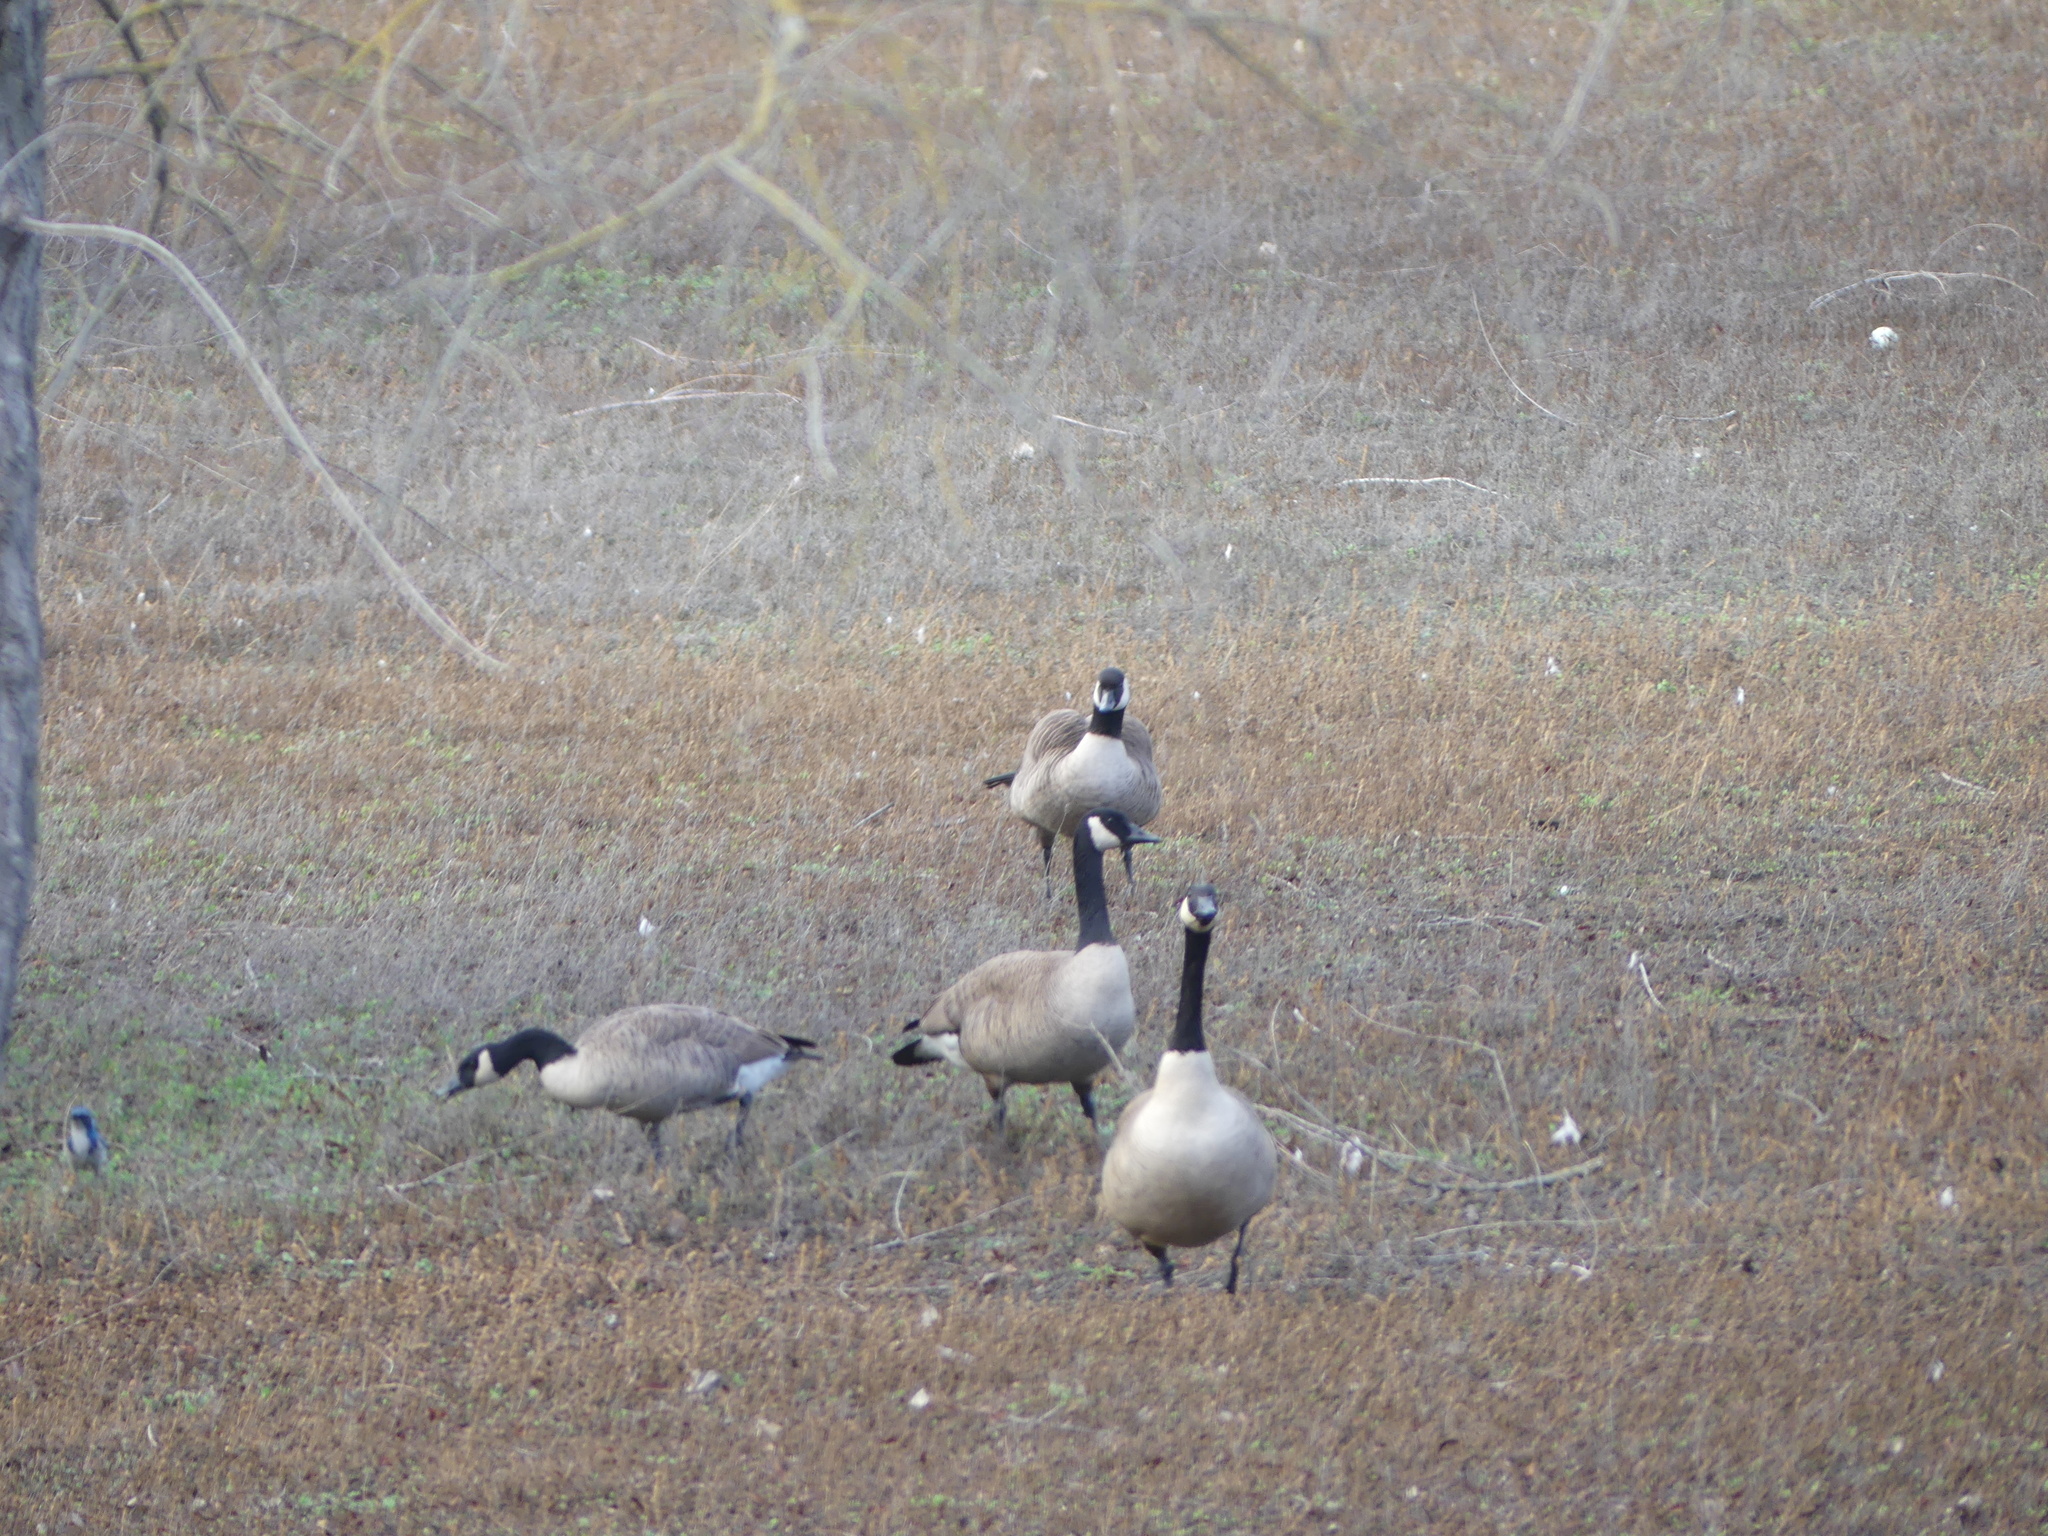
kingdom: Animalia
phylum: Chordata
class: Aves
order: Anseriformes
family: Anatidae
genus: Branta
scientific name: Branta canadensis
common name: Canada goose
